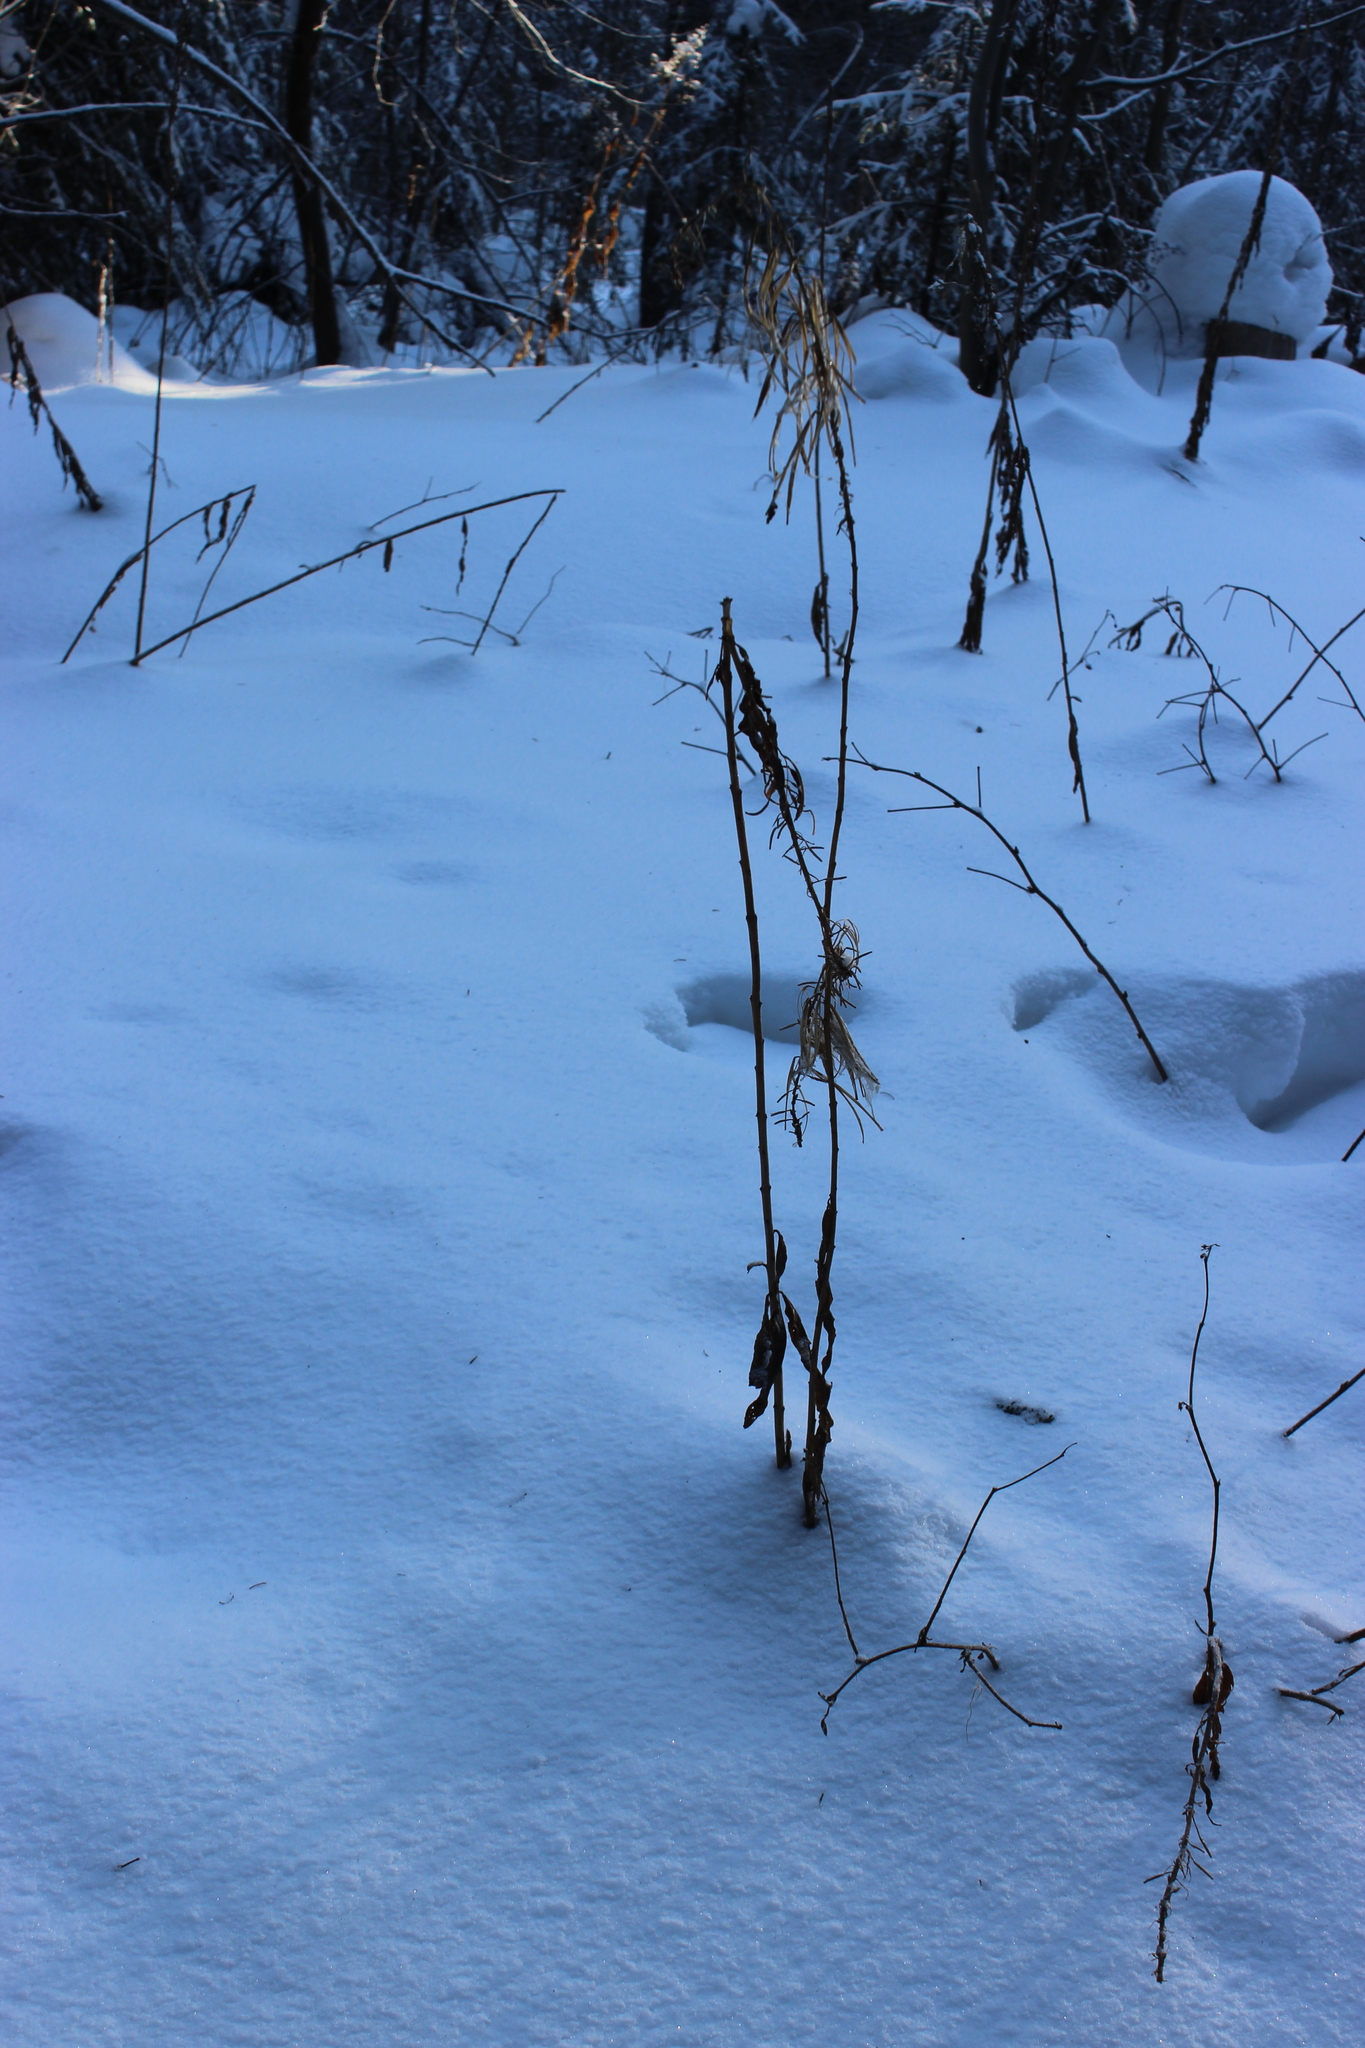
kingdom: Plantae
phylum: Tracheophyta
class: Magnoliopsida
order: Myrtales
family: Onagraceae
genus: Chamaenerion
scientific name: Chamaenerion angustifolium
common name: Fireweed
